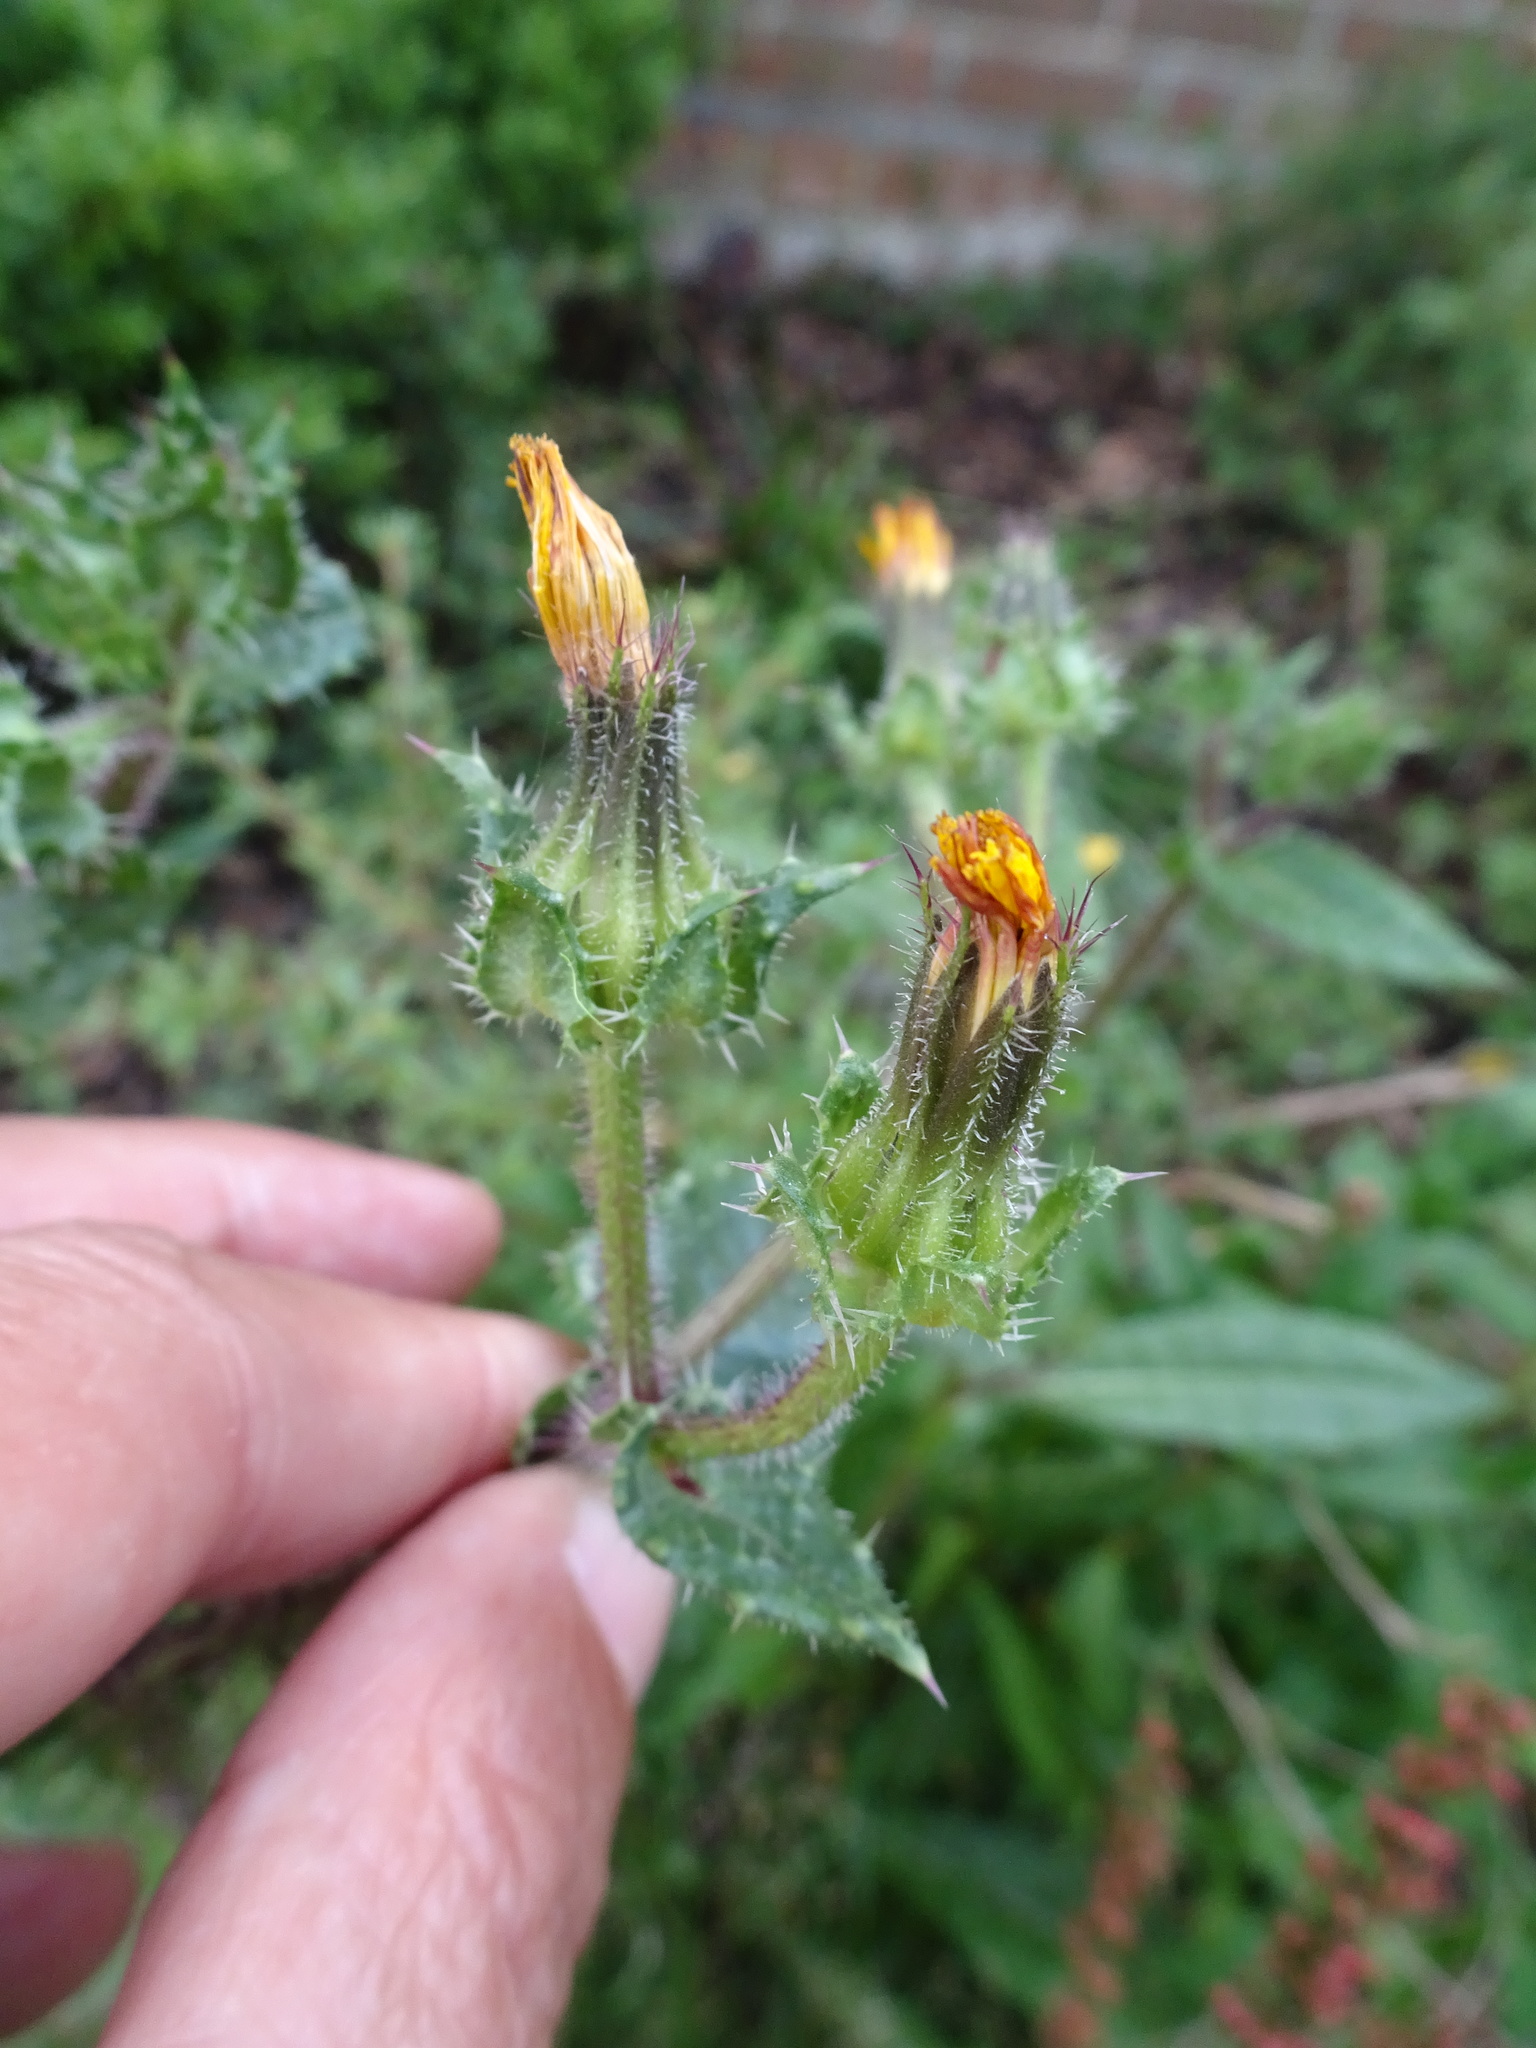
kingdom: Plantae
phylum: Tracheophyta
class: Magnoliopsida
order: Asterales
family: Asteraceae
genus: Helminthotheca
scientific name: Helminthotheca echioides
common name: Ox-tongue
